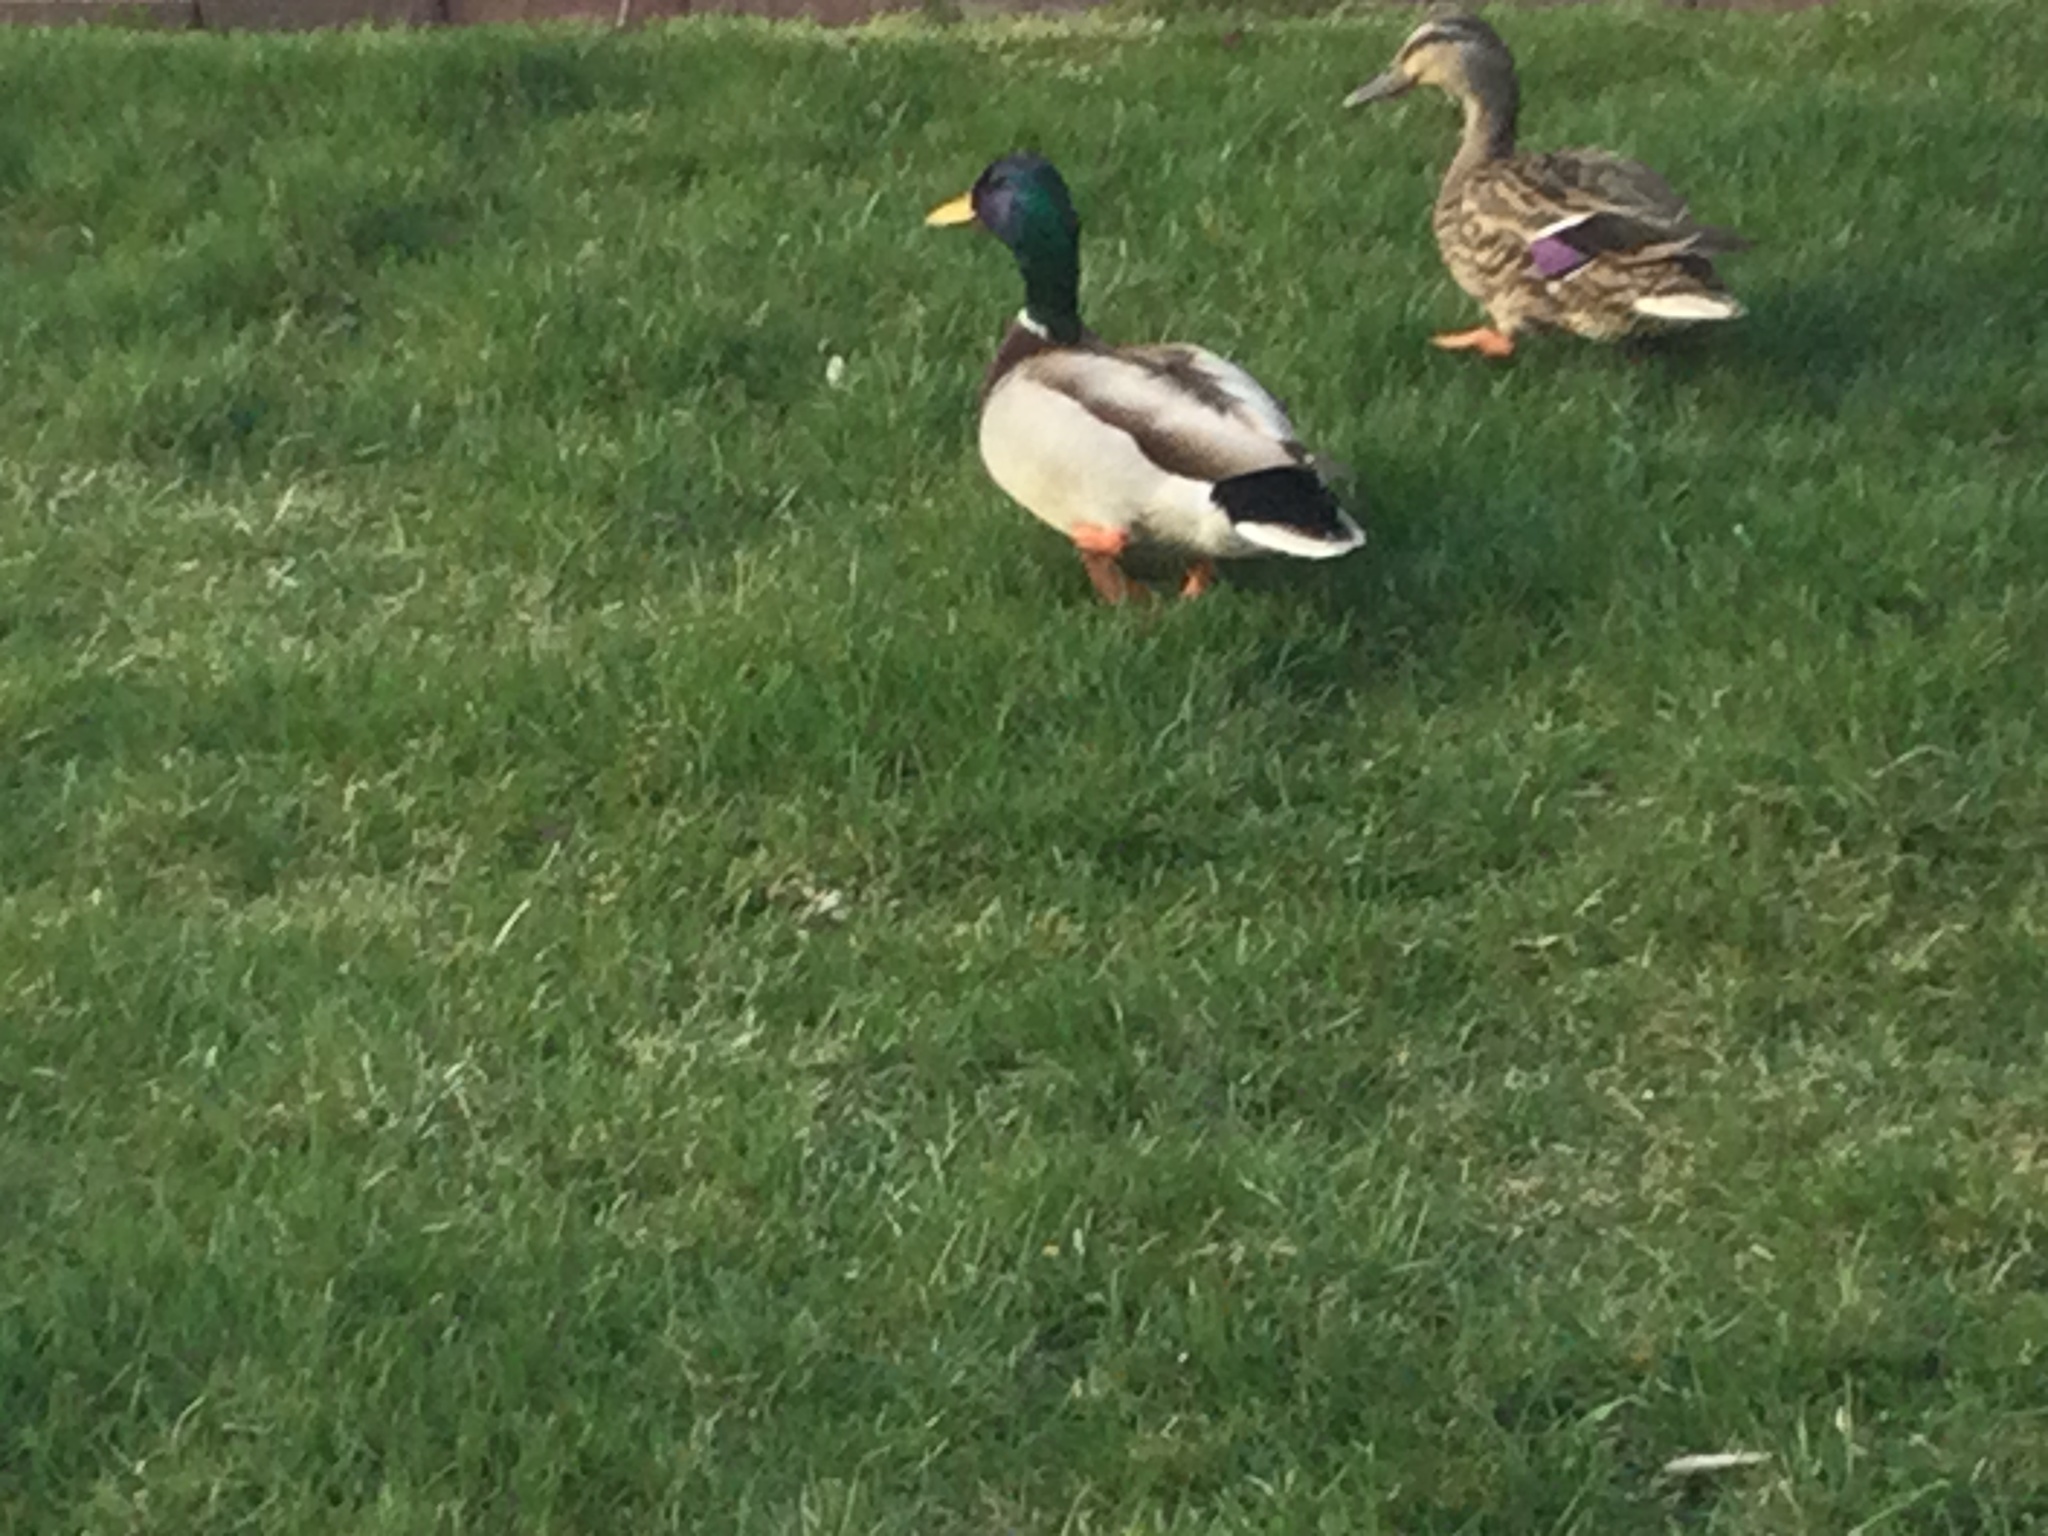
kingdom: Animalia
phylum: Chordata
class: Aves
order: Anseriformes
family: Anatidae
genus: Anas
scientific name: Anas platyrhynchos
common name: Mallard
